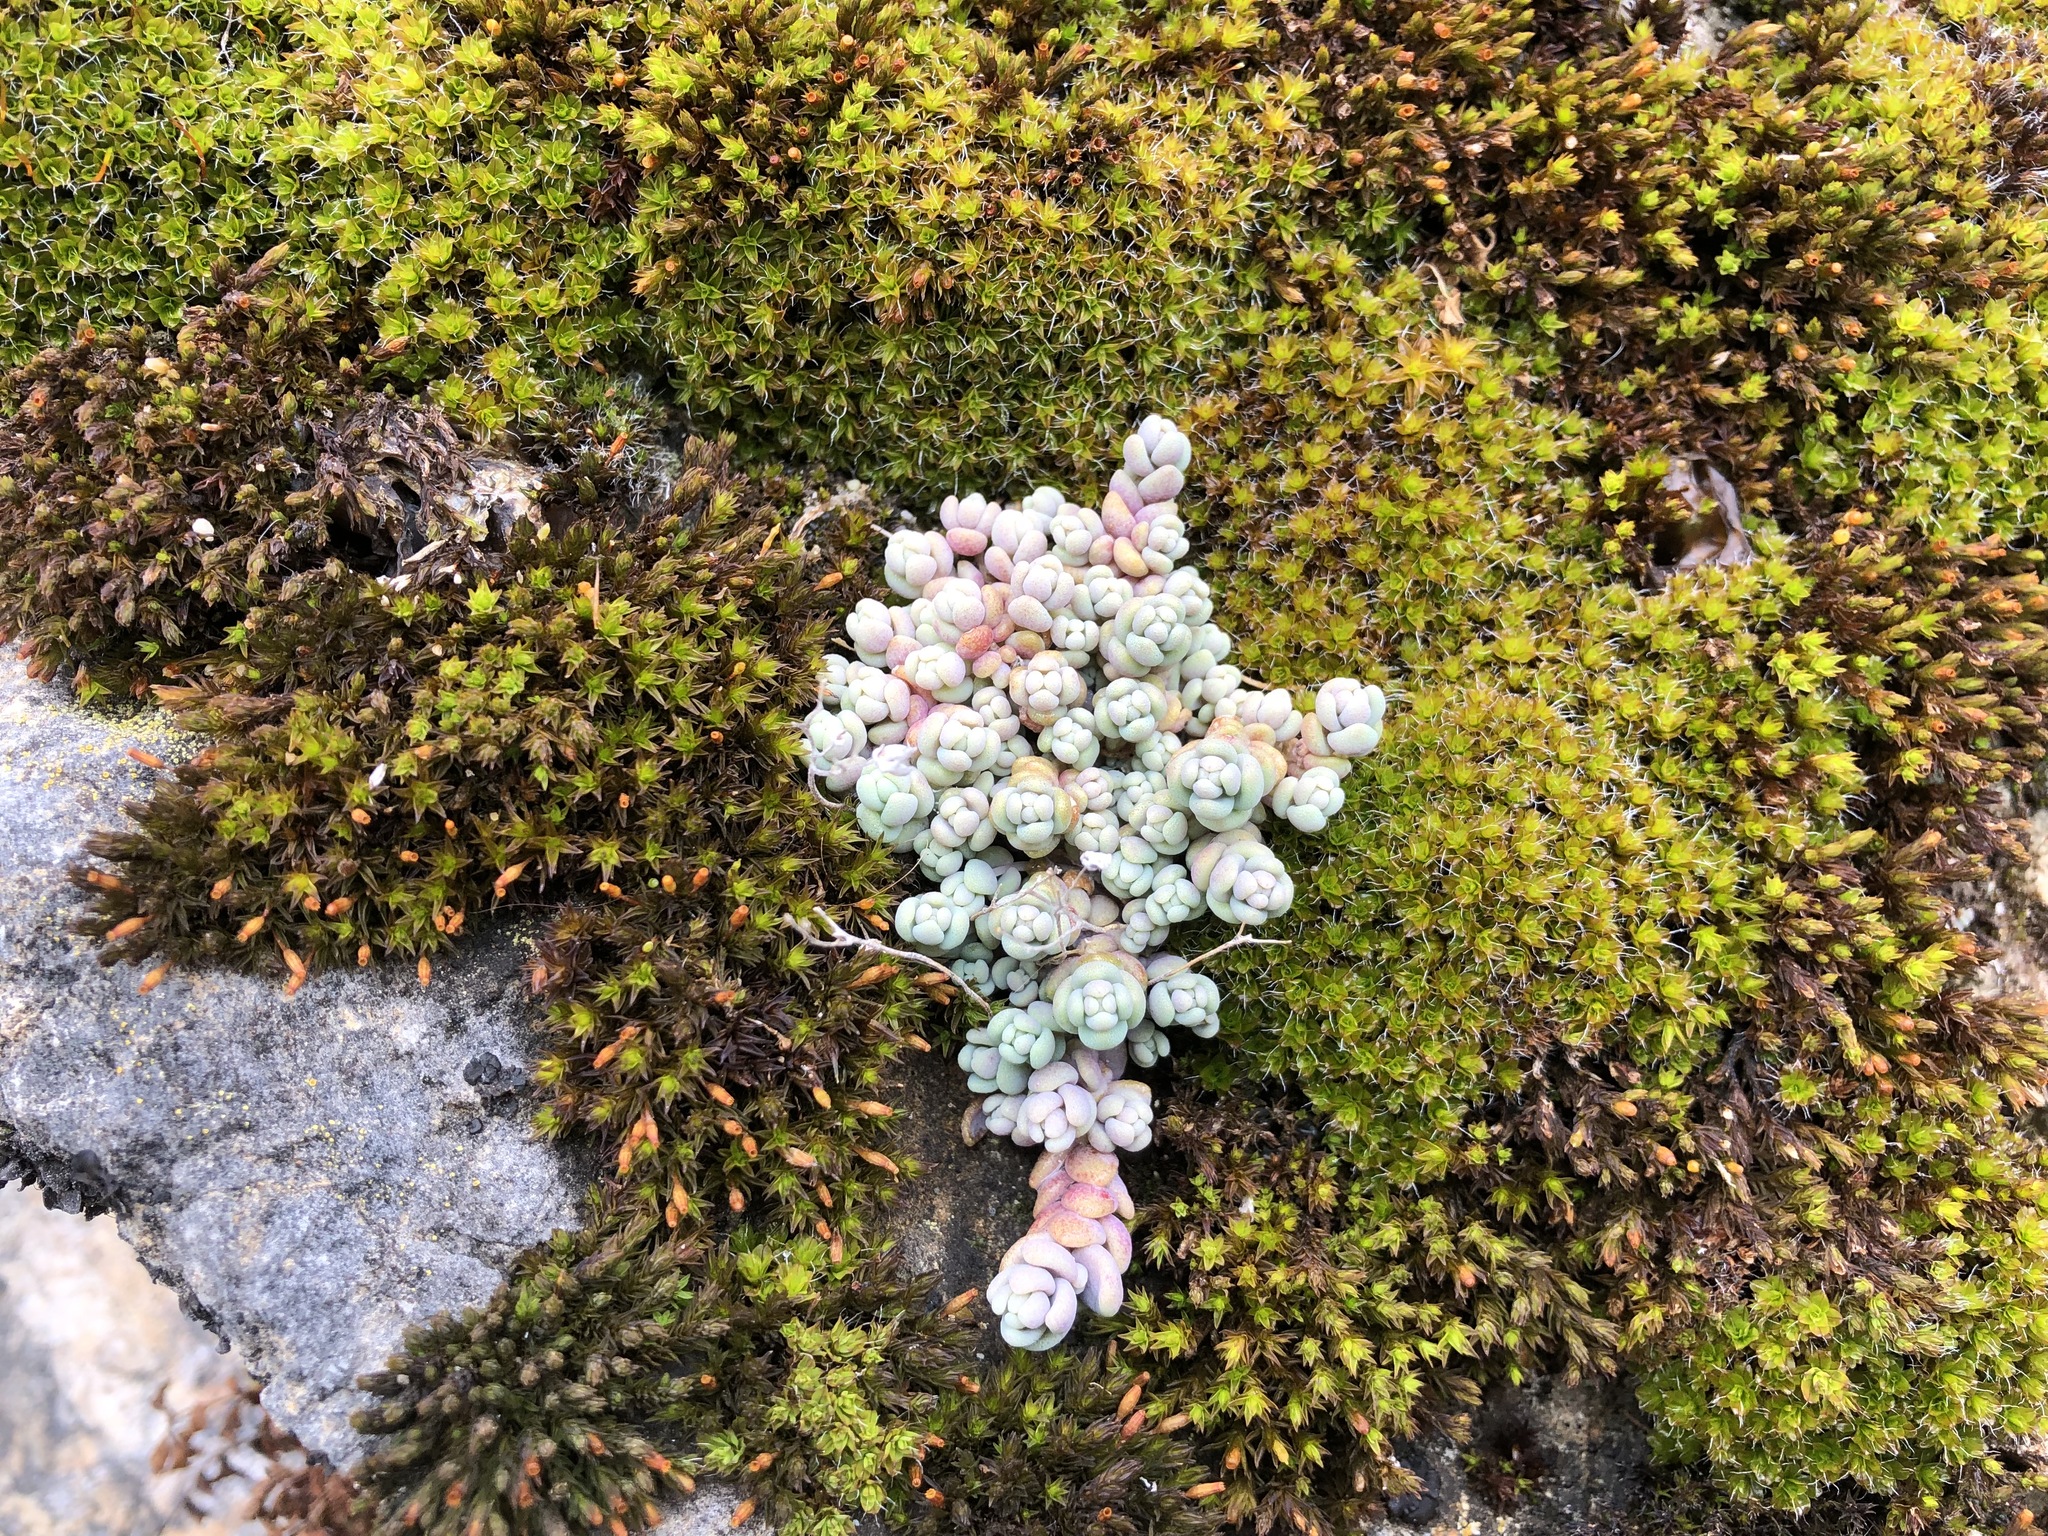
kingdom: Plantae
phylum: Tracheophyta
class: Magnoliopsida
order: Saxifragales
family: Crassulaceae
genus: Sedum
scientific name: Sedum dasyphyllum
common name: Thick-leaf stonecrop
